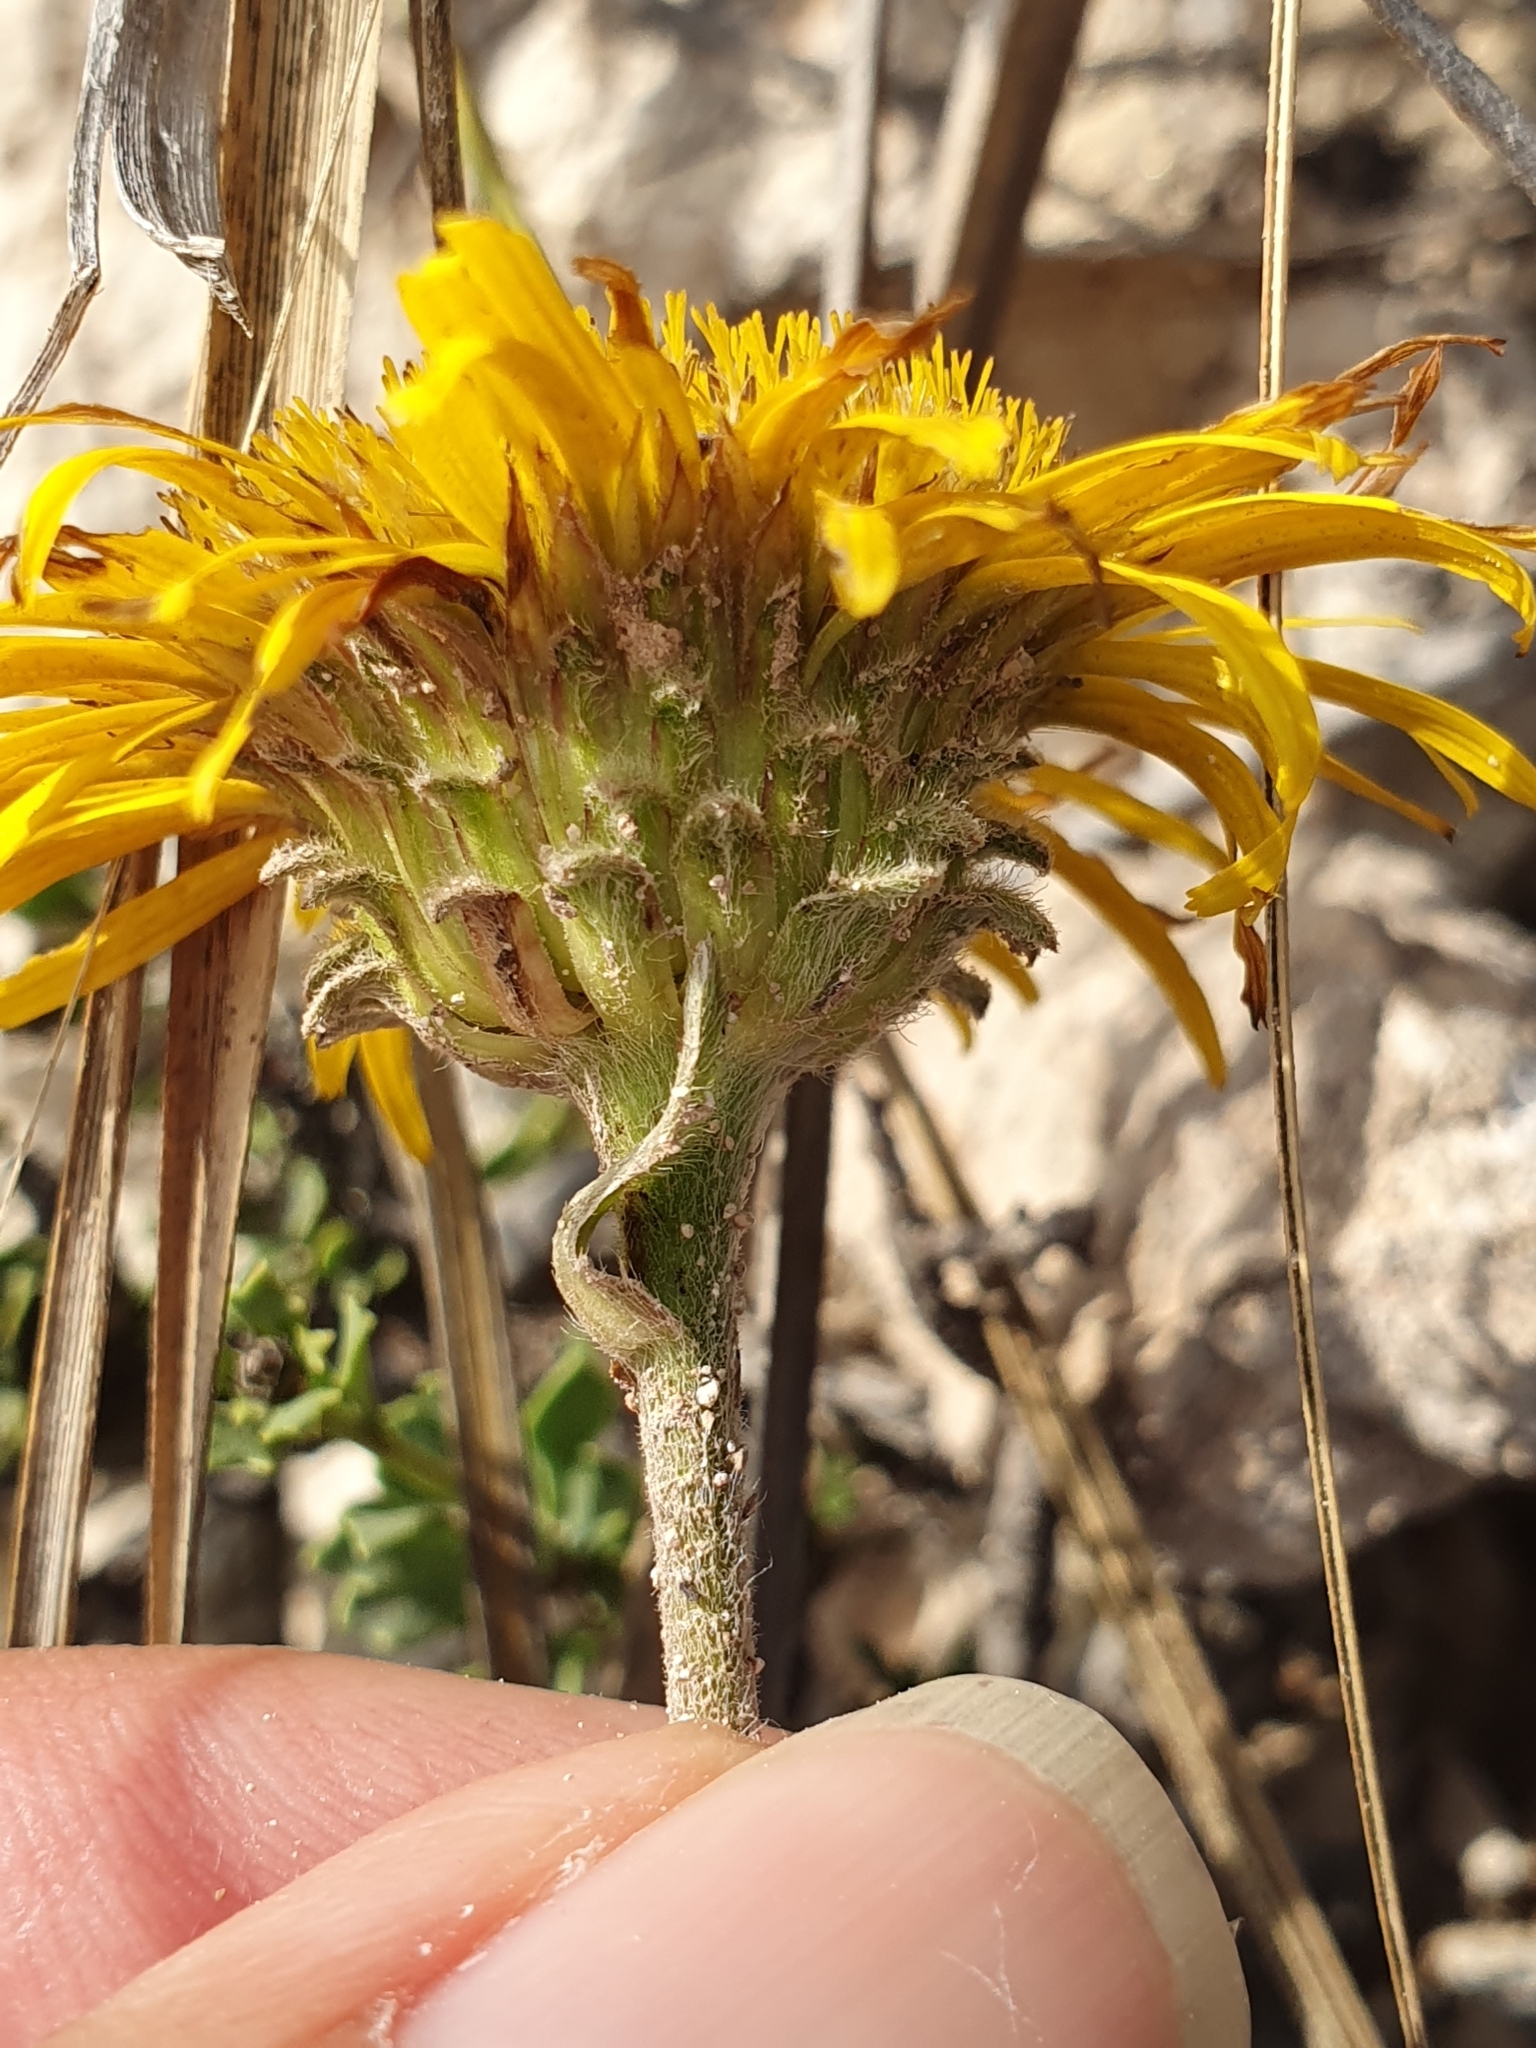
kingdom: Plantae
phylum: Tracheophyta
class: Magnoliopsida
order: Asterales
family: Asteraceae
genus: Pentanema
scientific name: Pentanema montanum
